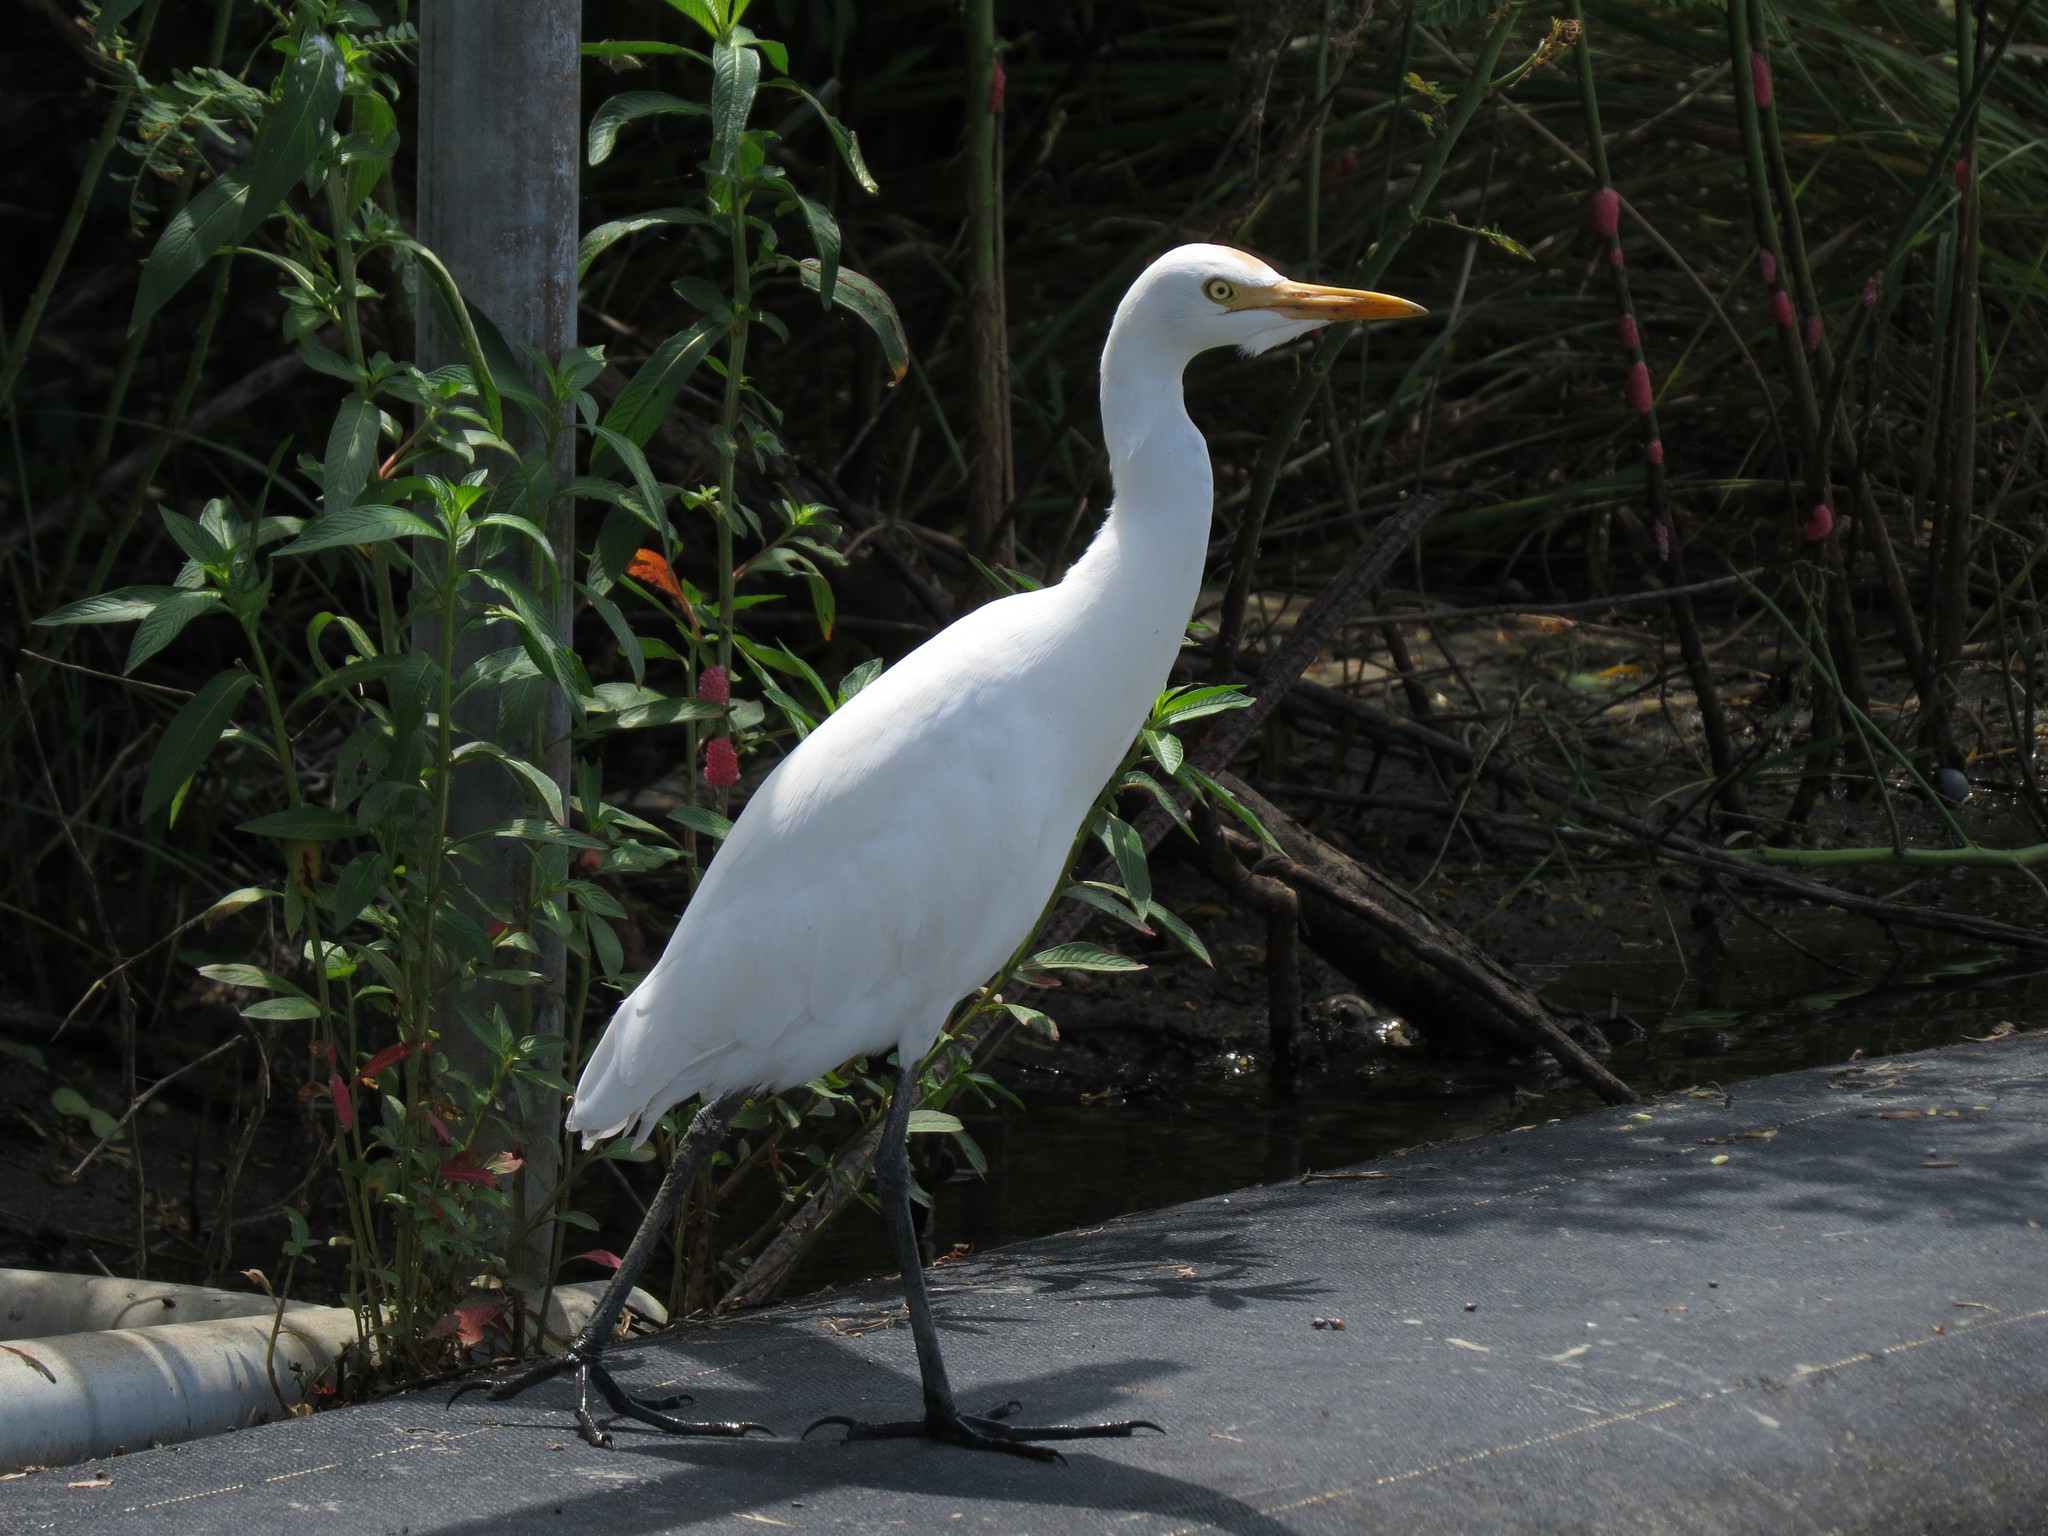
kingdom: Animalia
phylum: Chordata
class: Aves
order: Pelecaniformes
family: Ardeidae
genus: Bubulcus
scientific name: Bubulcus coromandus
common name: Eastern cattle egret
